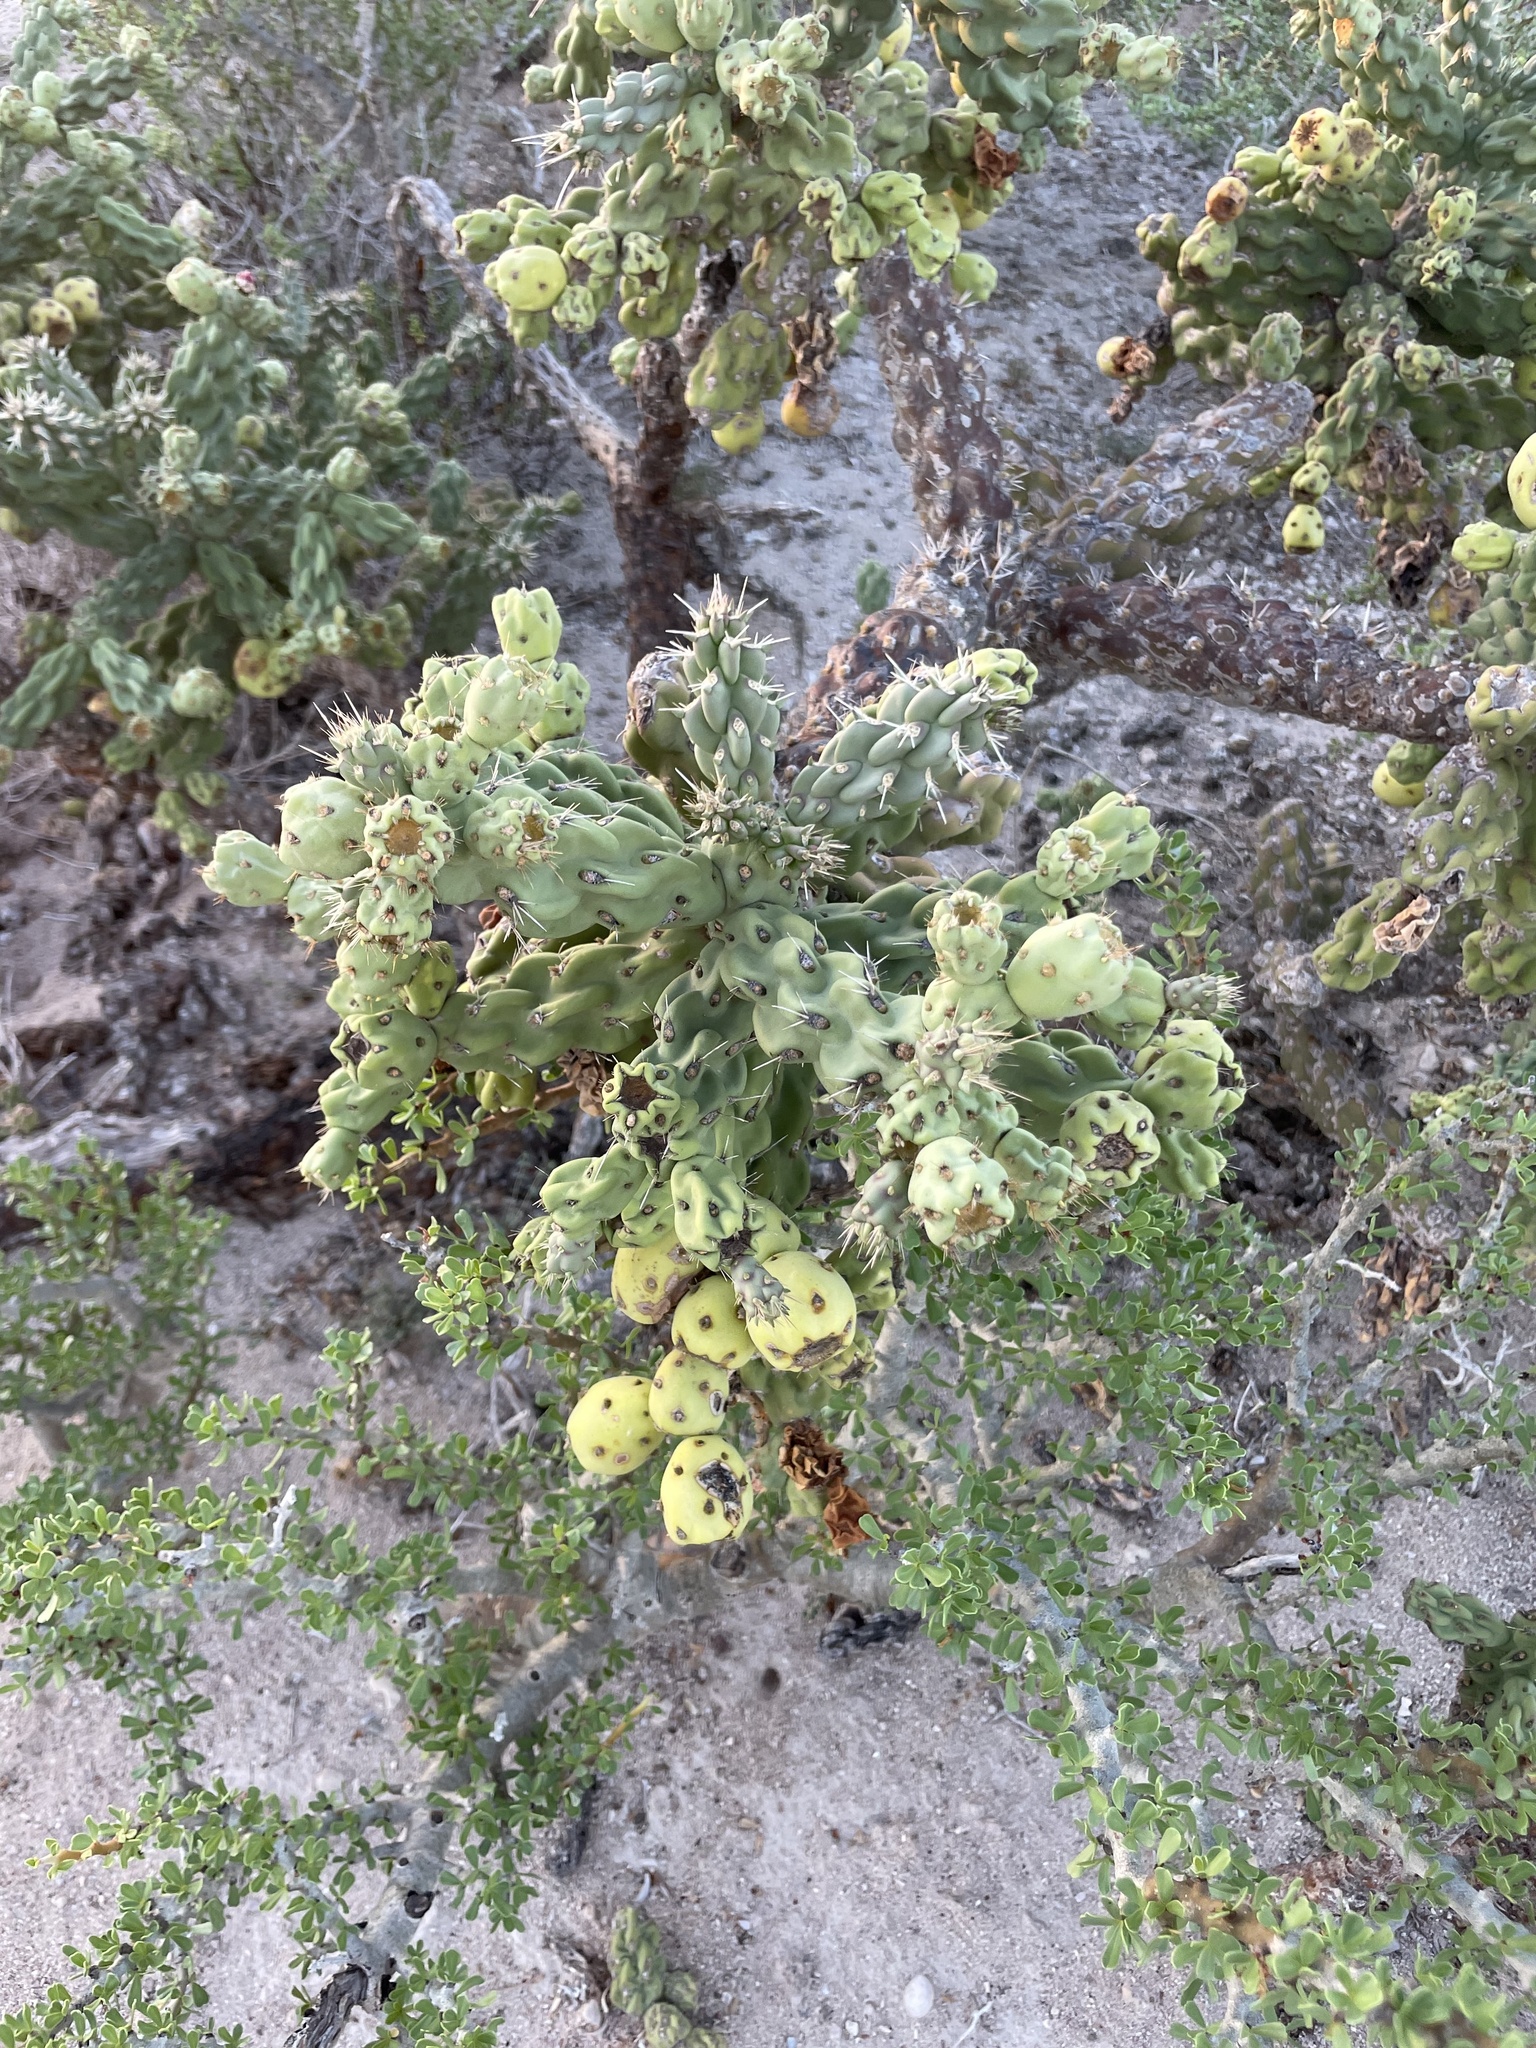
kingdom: Plantae
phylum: Tracheophyta
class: Magnoliopsida
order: Caryophyllales
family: Cactaceae
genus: Cylindropuntia
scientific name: Cylindropuntia cholla
